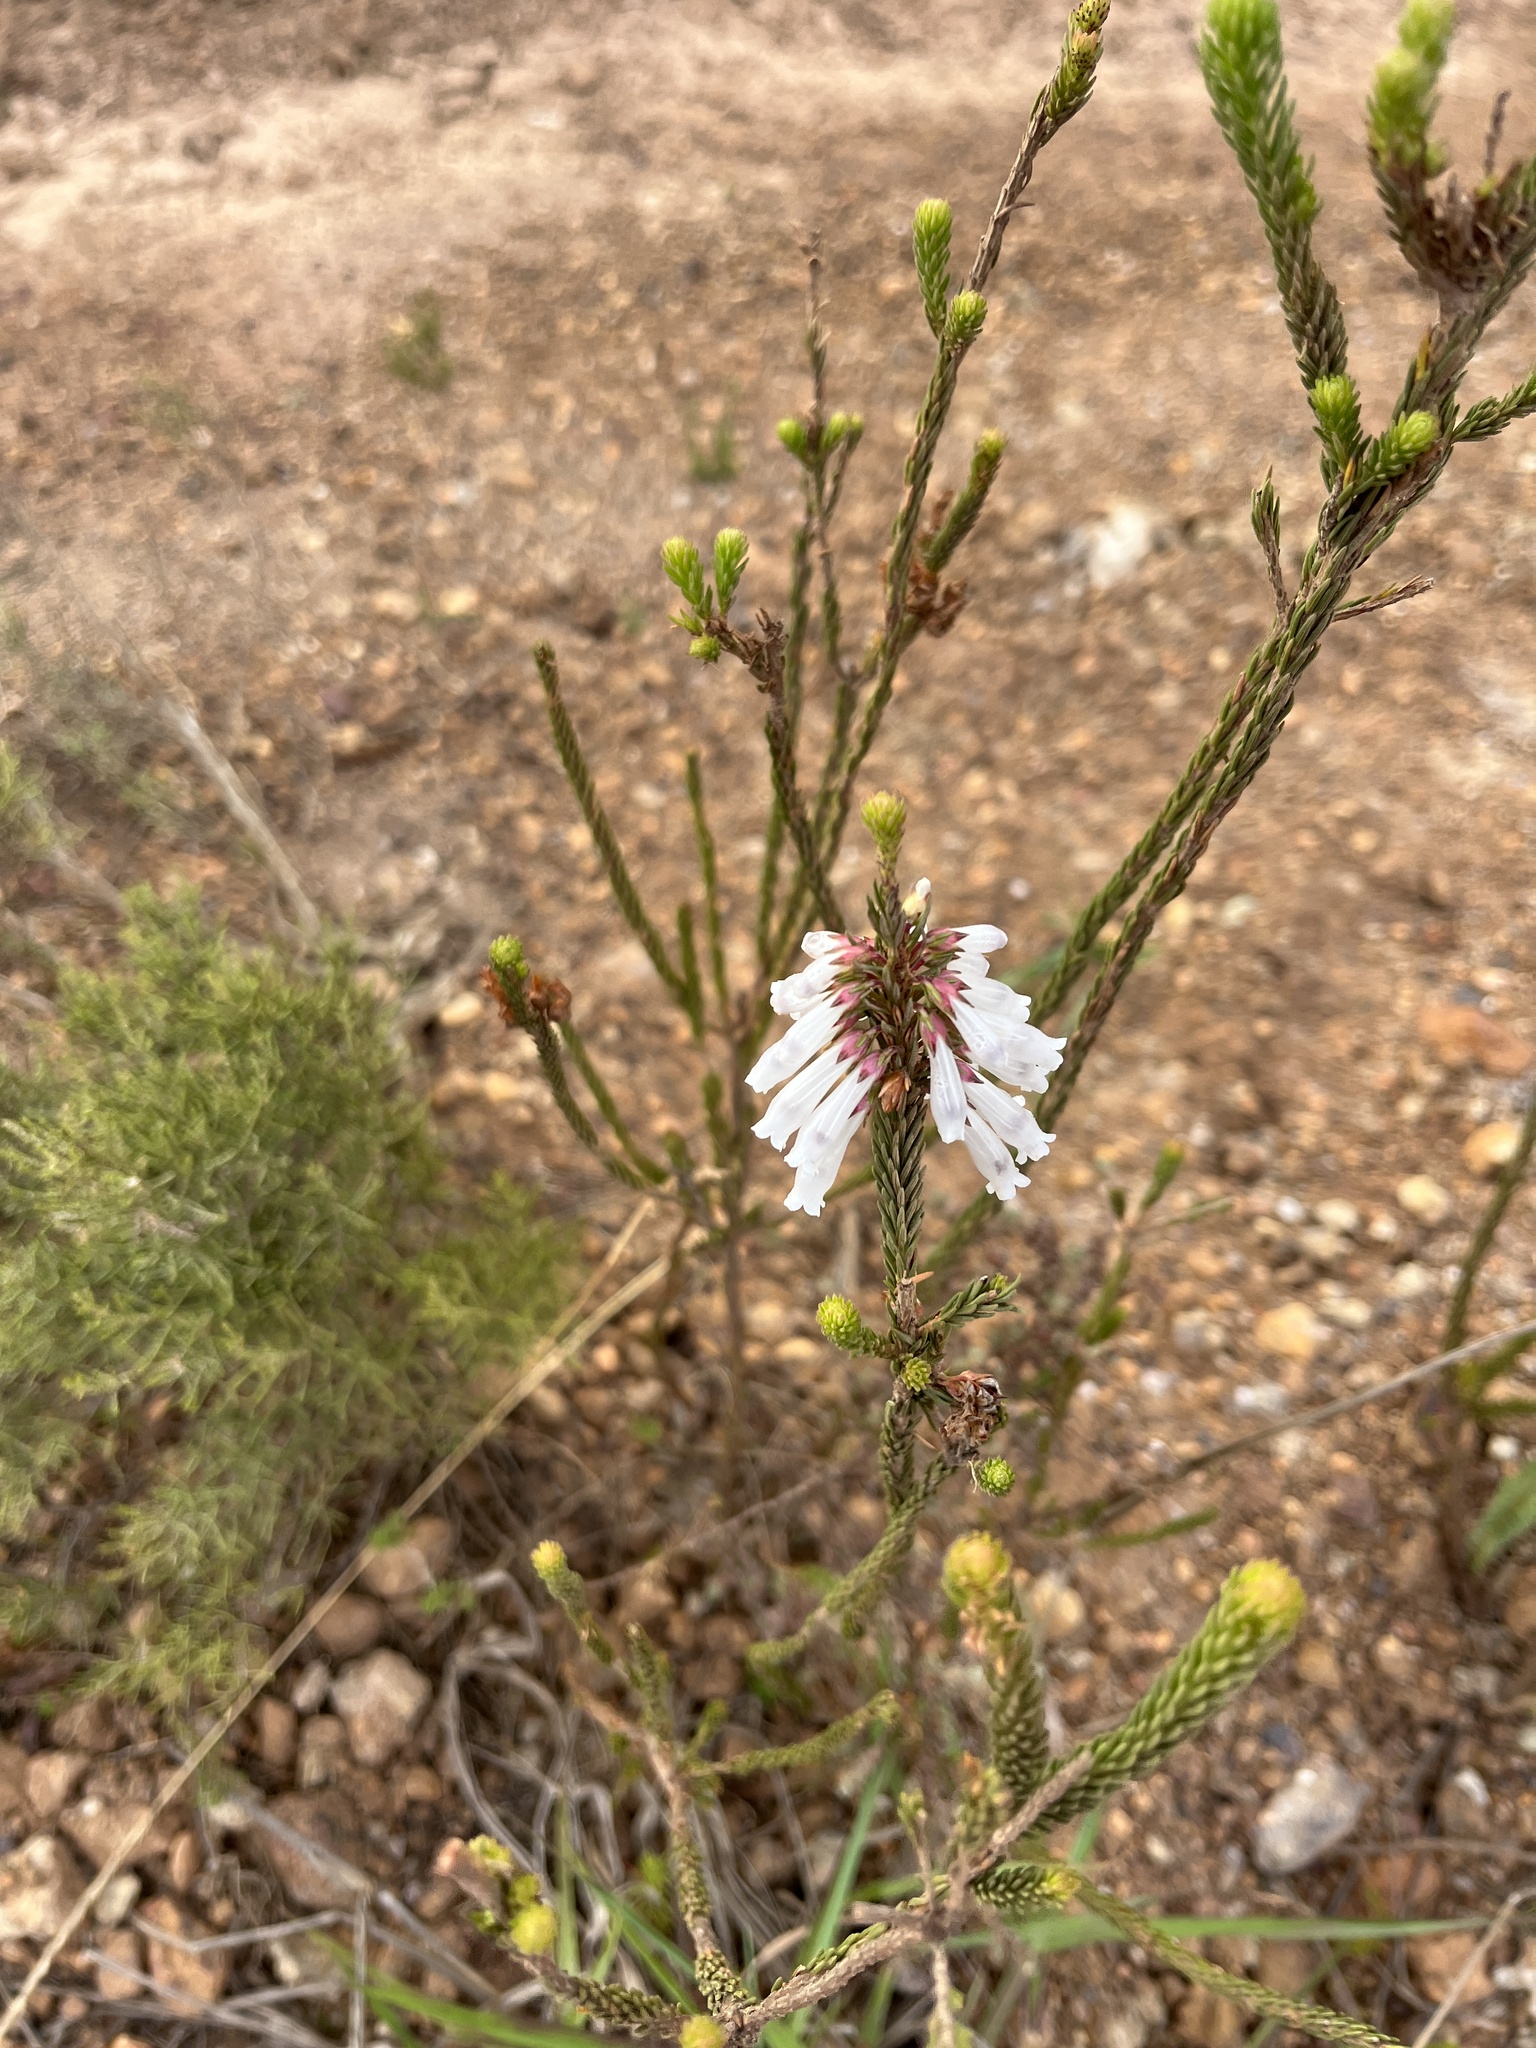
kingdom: Plantae
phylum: Tracheophyta
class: Magnoliopsida
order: Ericales
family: Ericaceae
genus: Erica
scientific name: Erica regia
